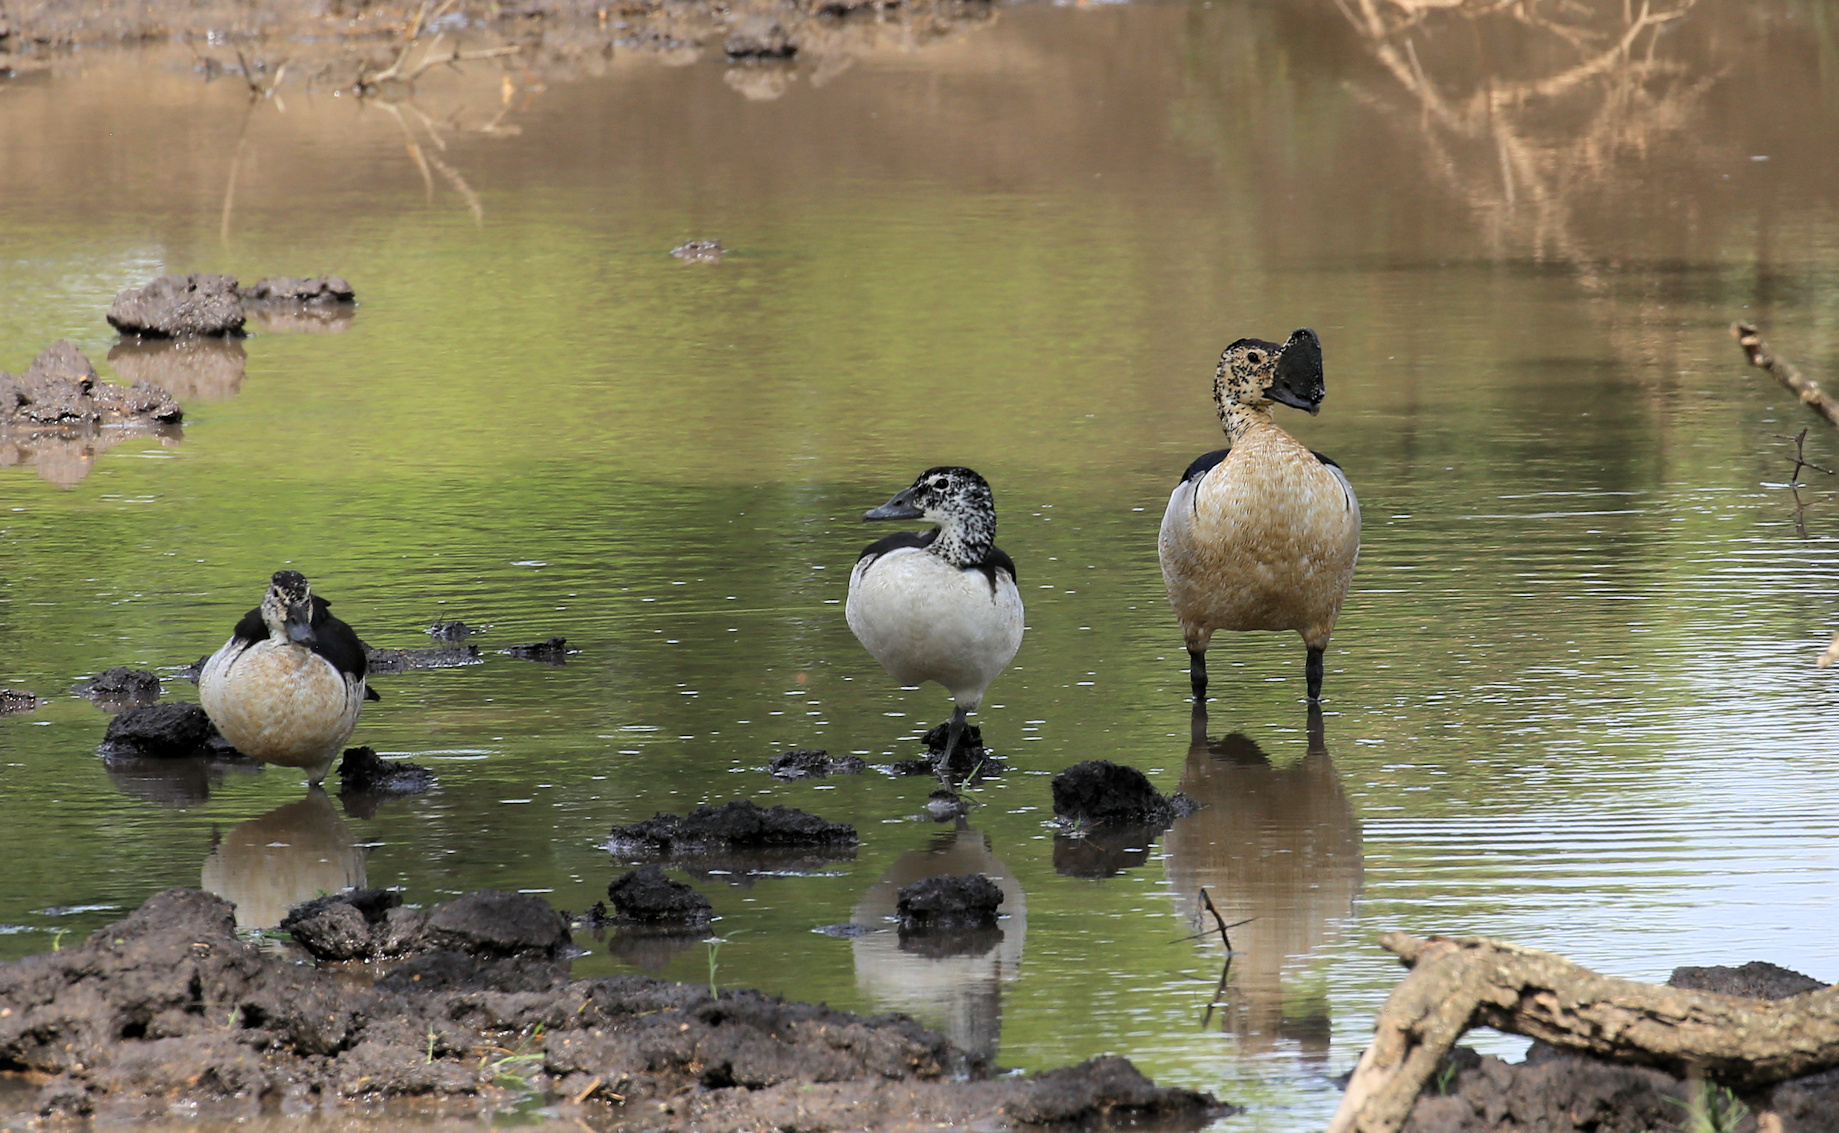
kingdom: Animalia
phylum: Chordata
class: Aves
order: Anseriformes
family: Anatidae
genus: Sarkidiornis
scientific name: Sarkidiornis melanotos
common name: Comb duck
